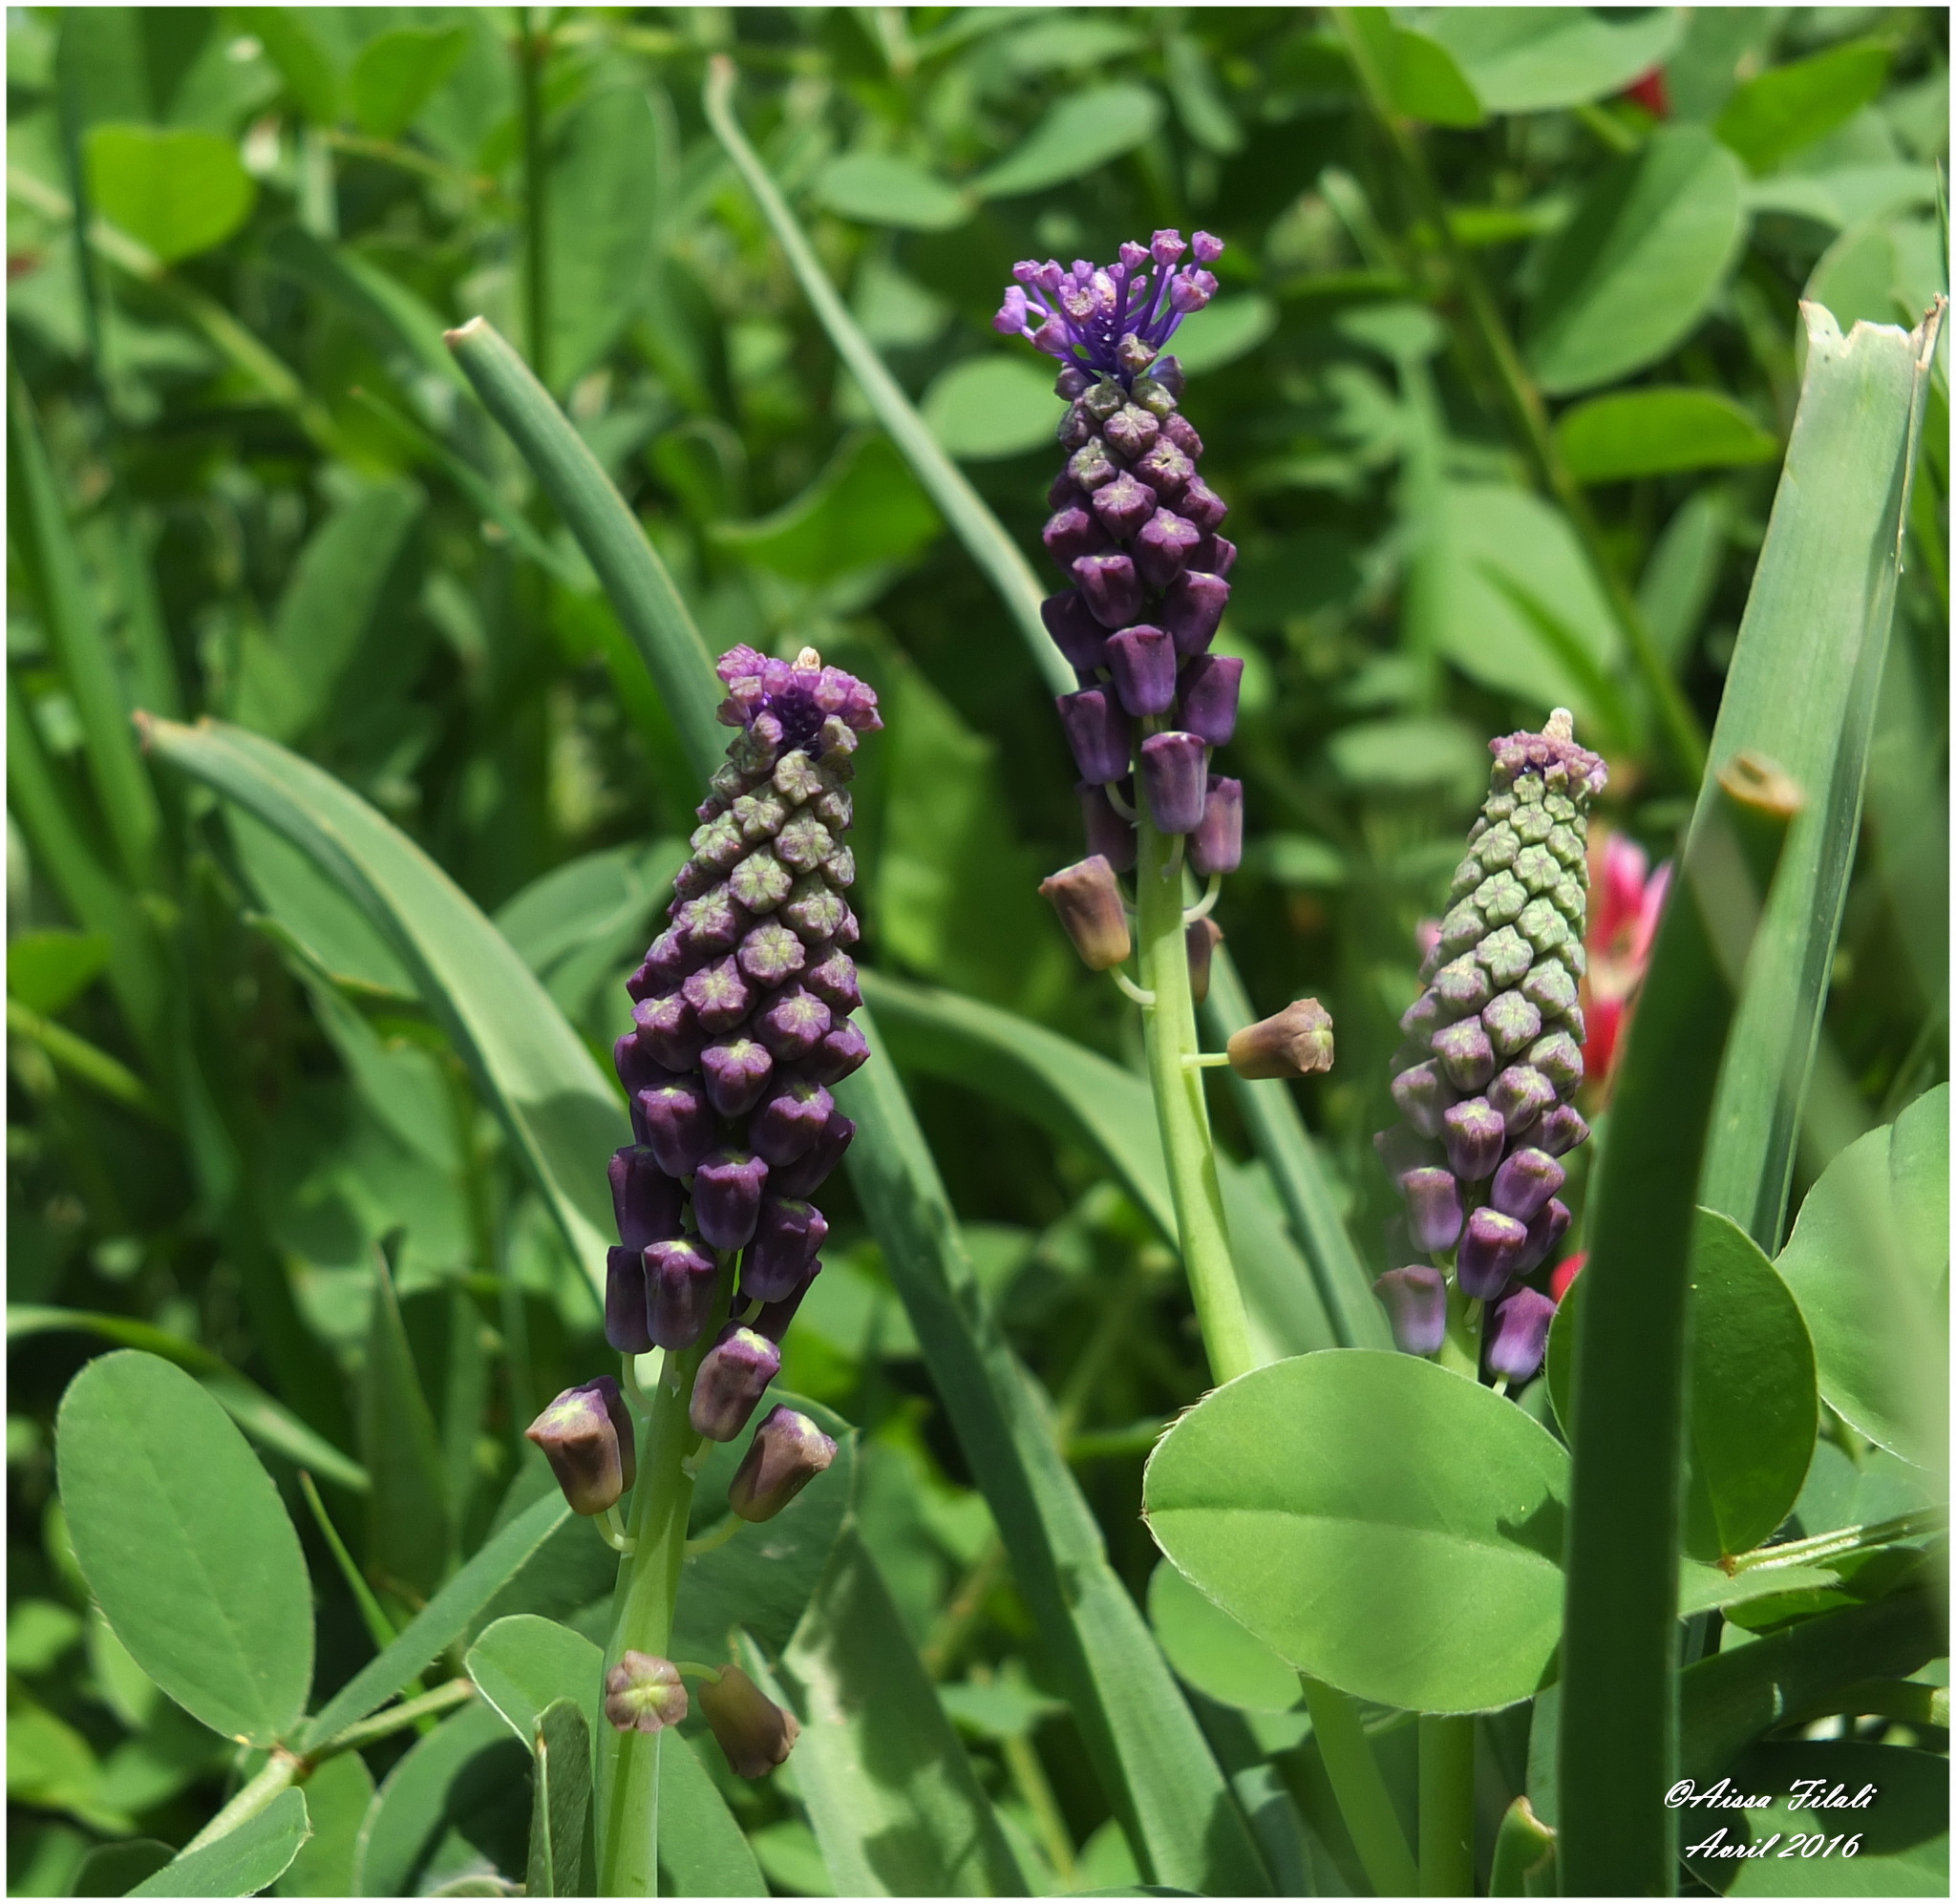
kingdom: Plantae
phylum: Tracheophyta
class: Liliopsida
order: Asparagales
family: Asparagaceae
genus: Muscari
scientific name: Muscari comosum
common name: Tassel hyacinth
